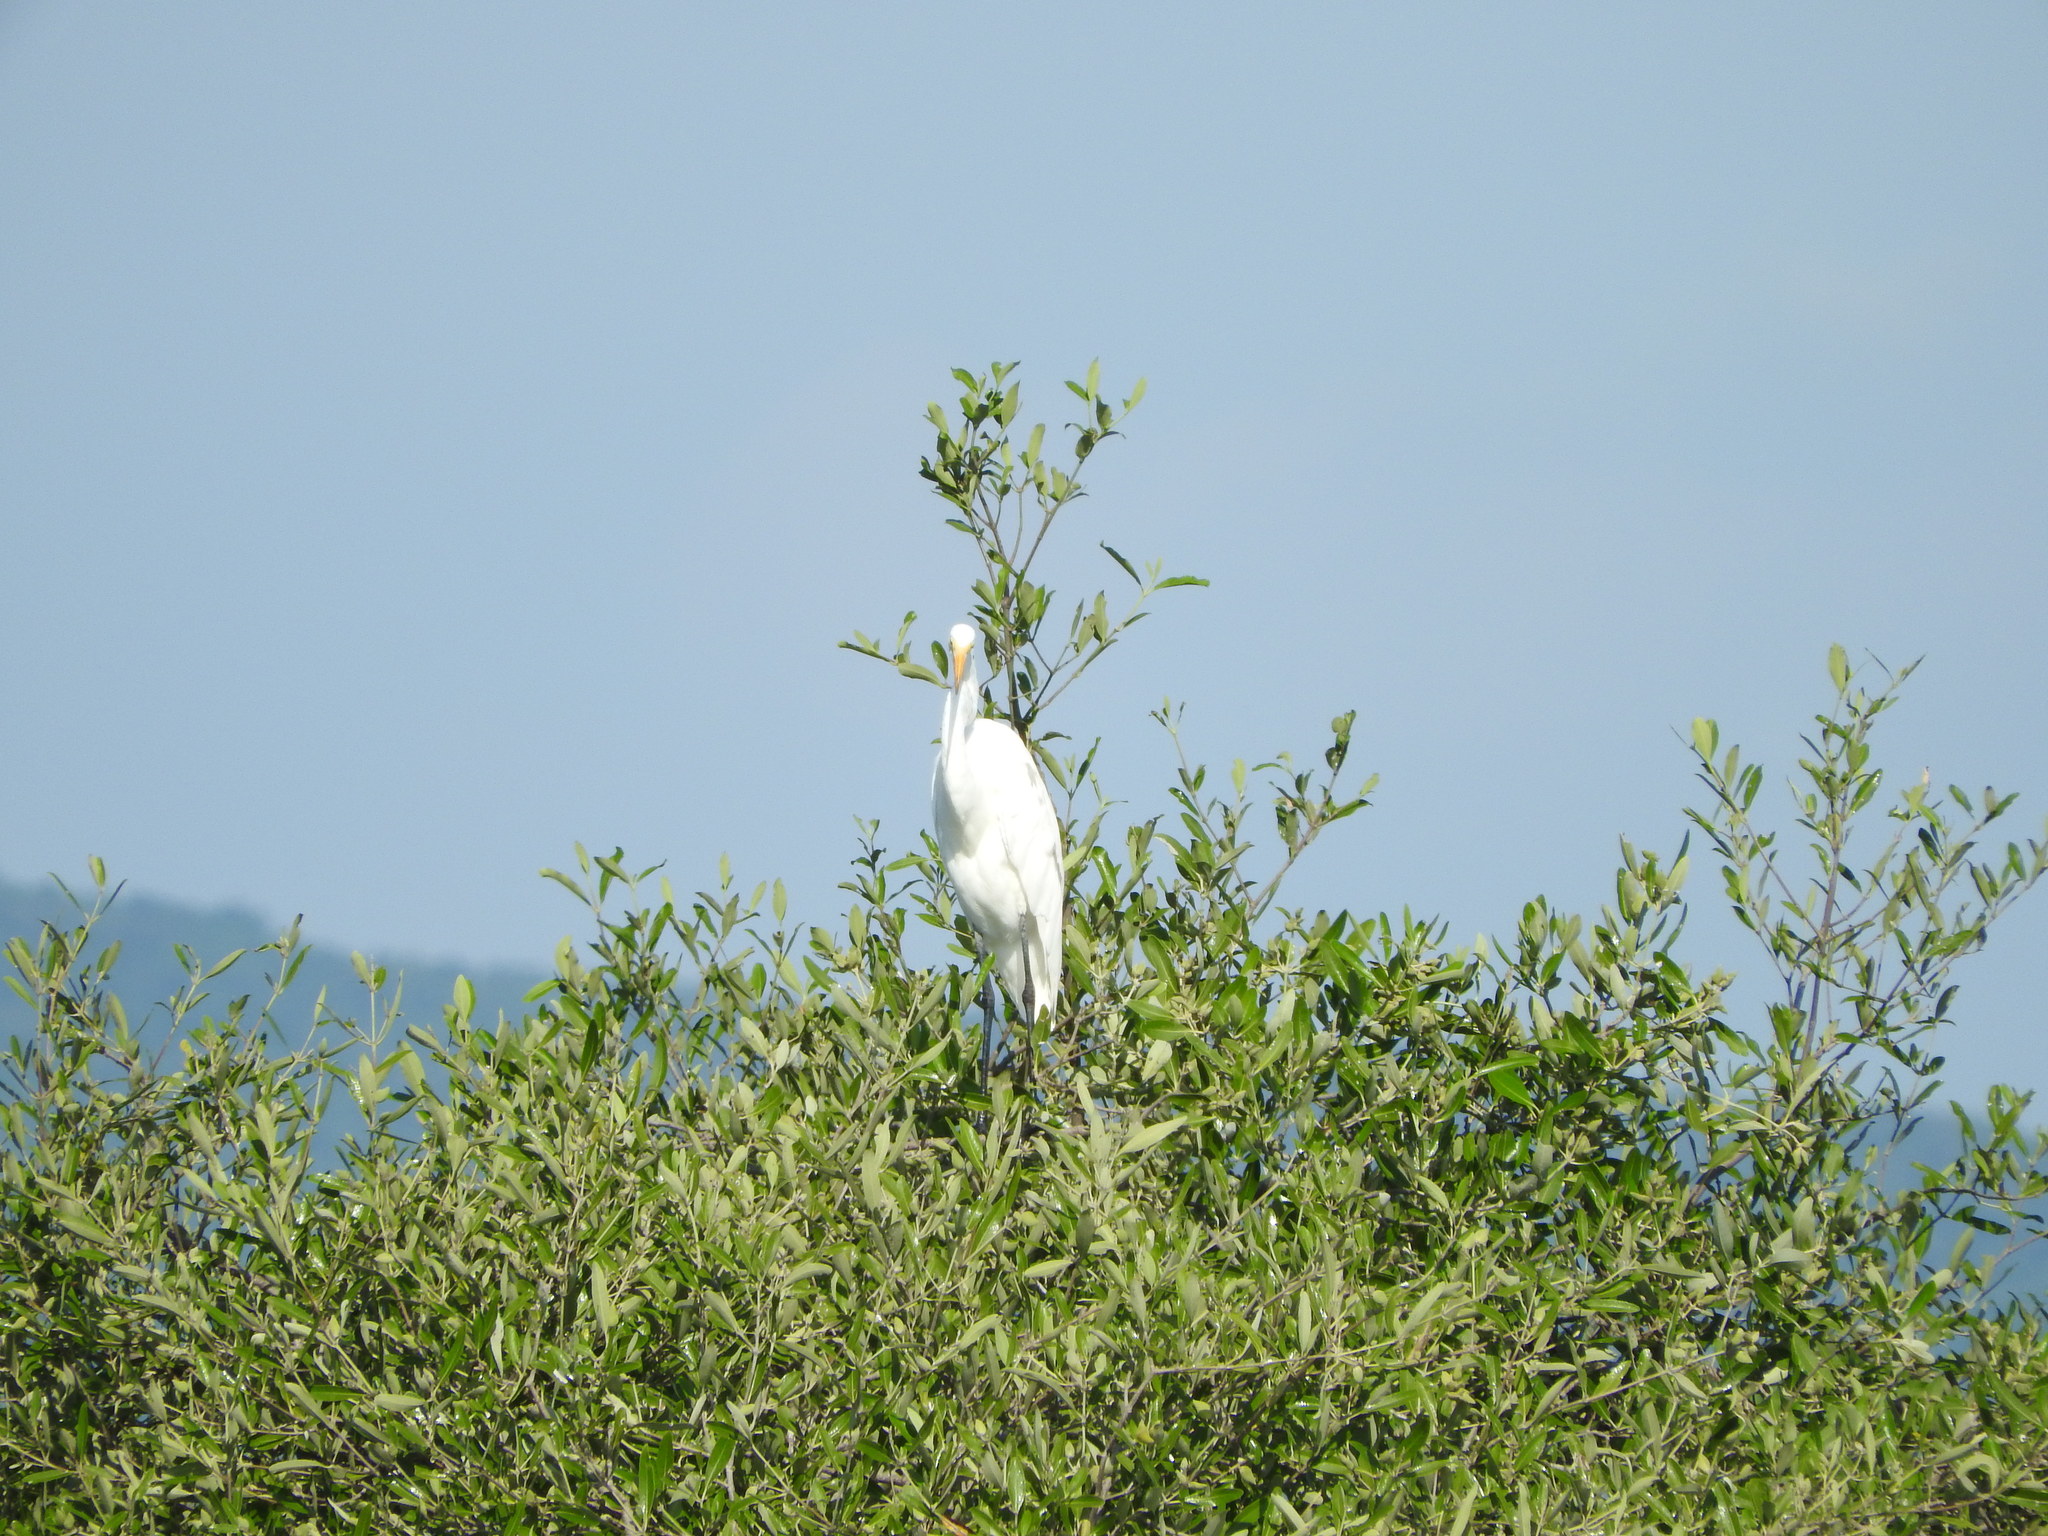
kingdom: Animalia
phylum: Chordata
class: Aves
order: Pelecaniformes
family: Ardeidae
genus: Ardea
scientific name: Ardea alba
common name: Great egret
